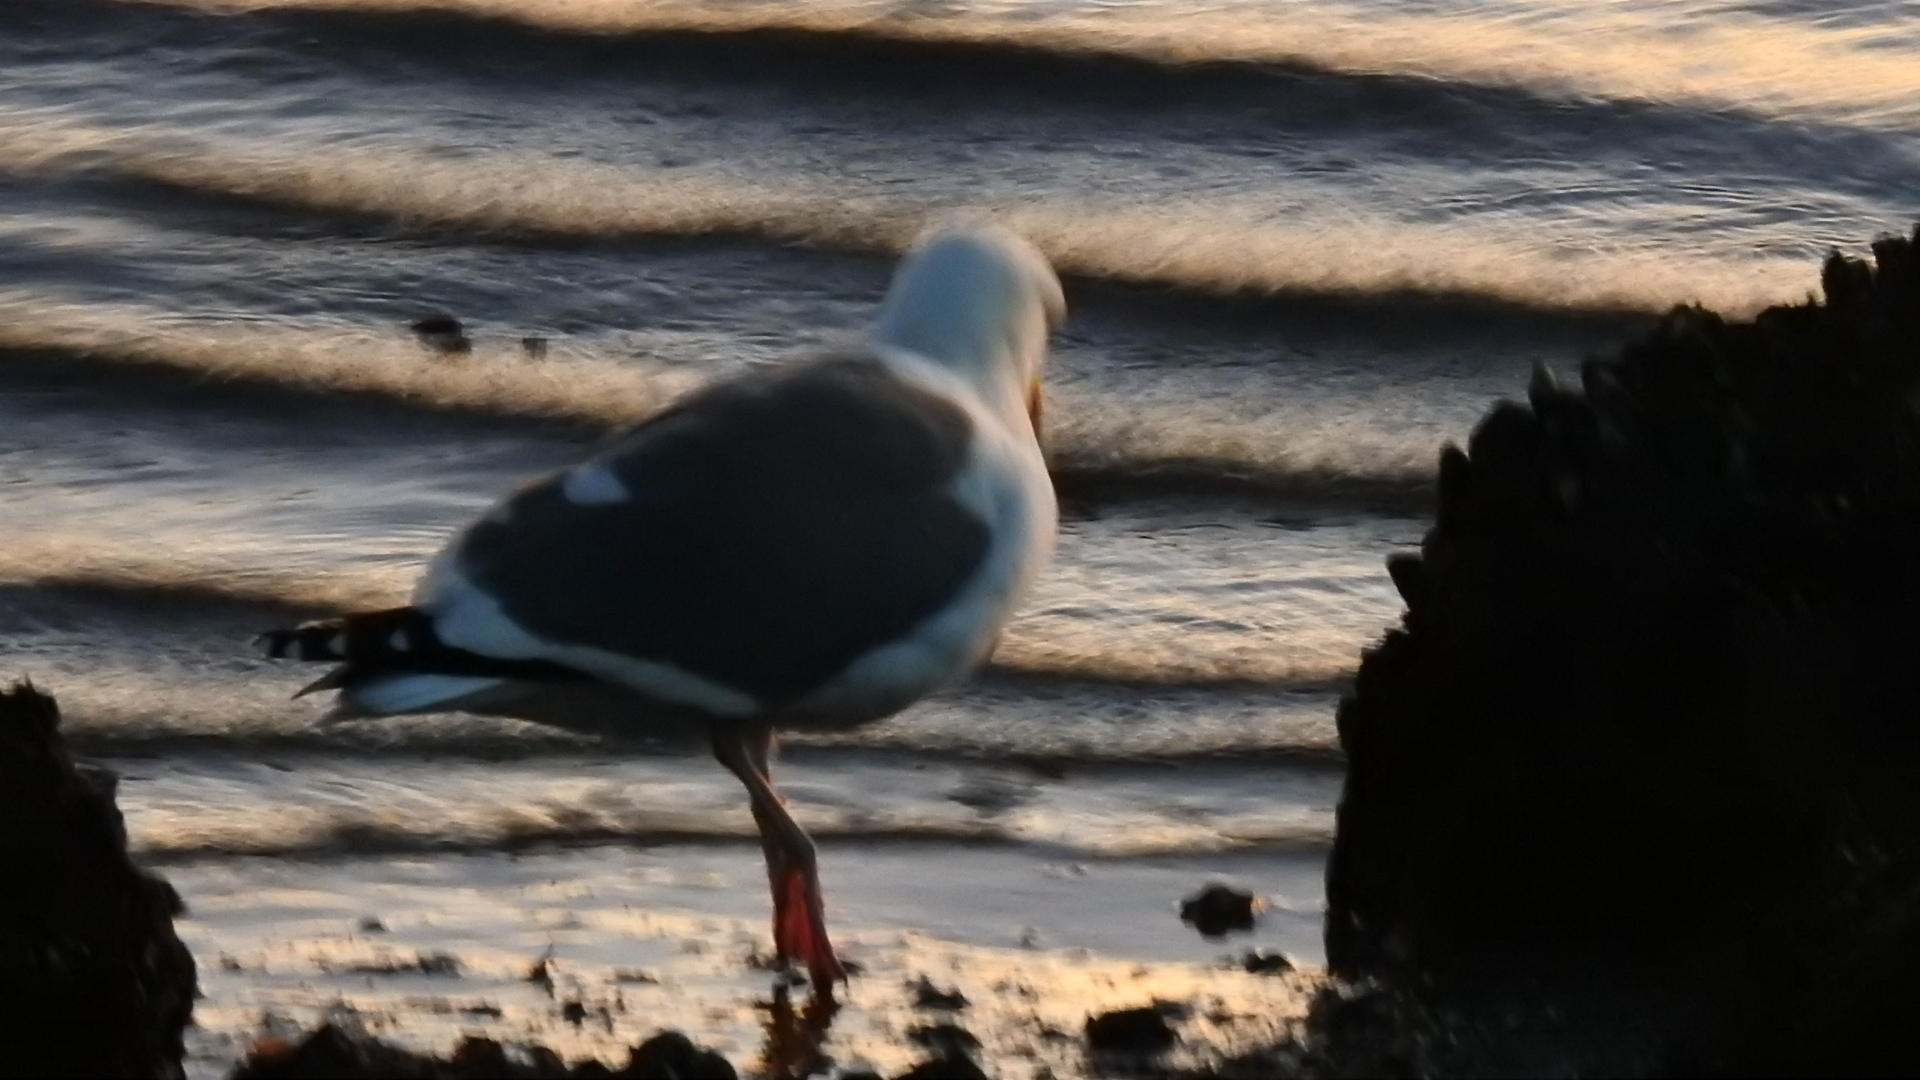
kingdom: Animalia
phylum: Chordata
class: Aves
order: Charadriiformes
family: Laridae
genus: Larus
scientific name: Larus occidentalis
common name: Western gull
